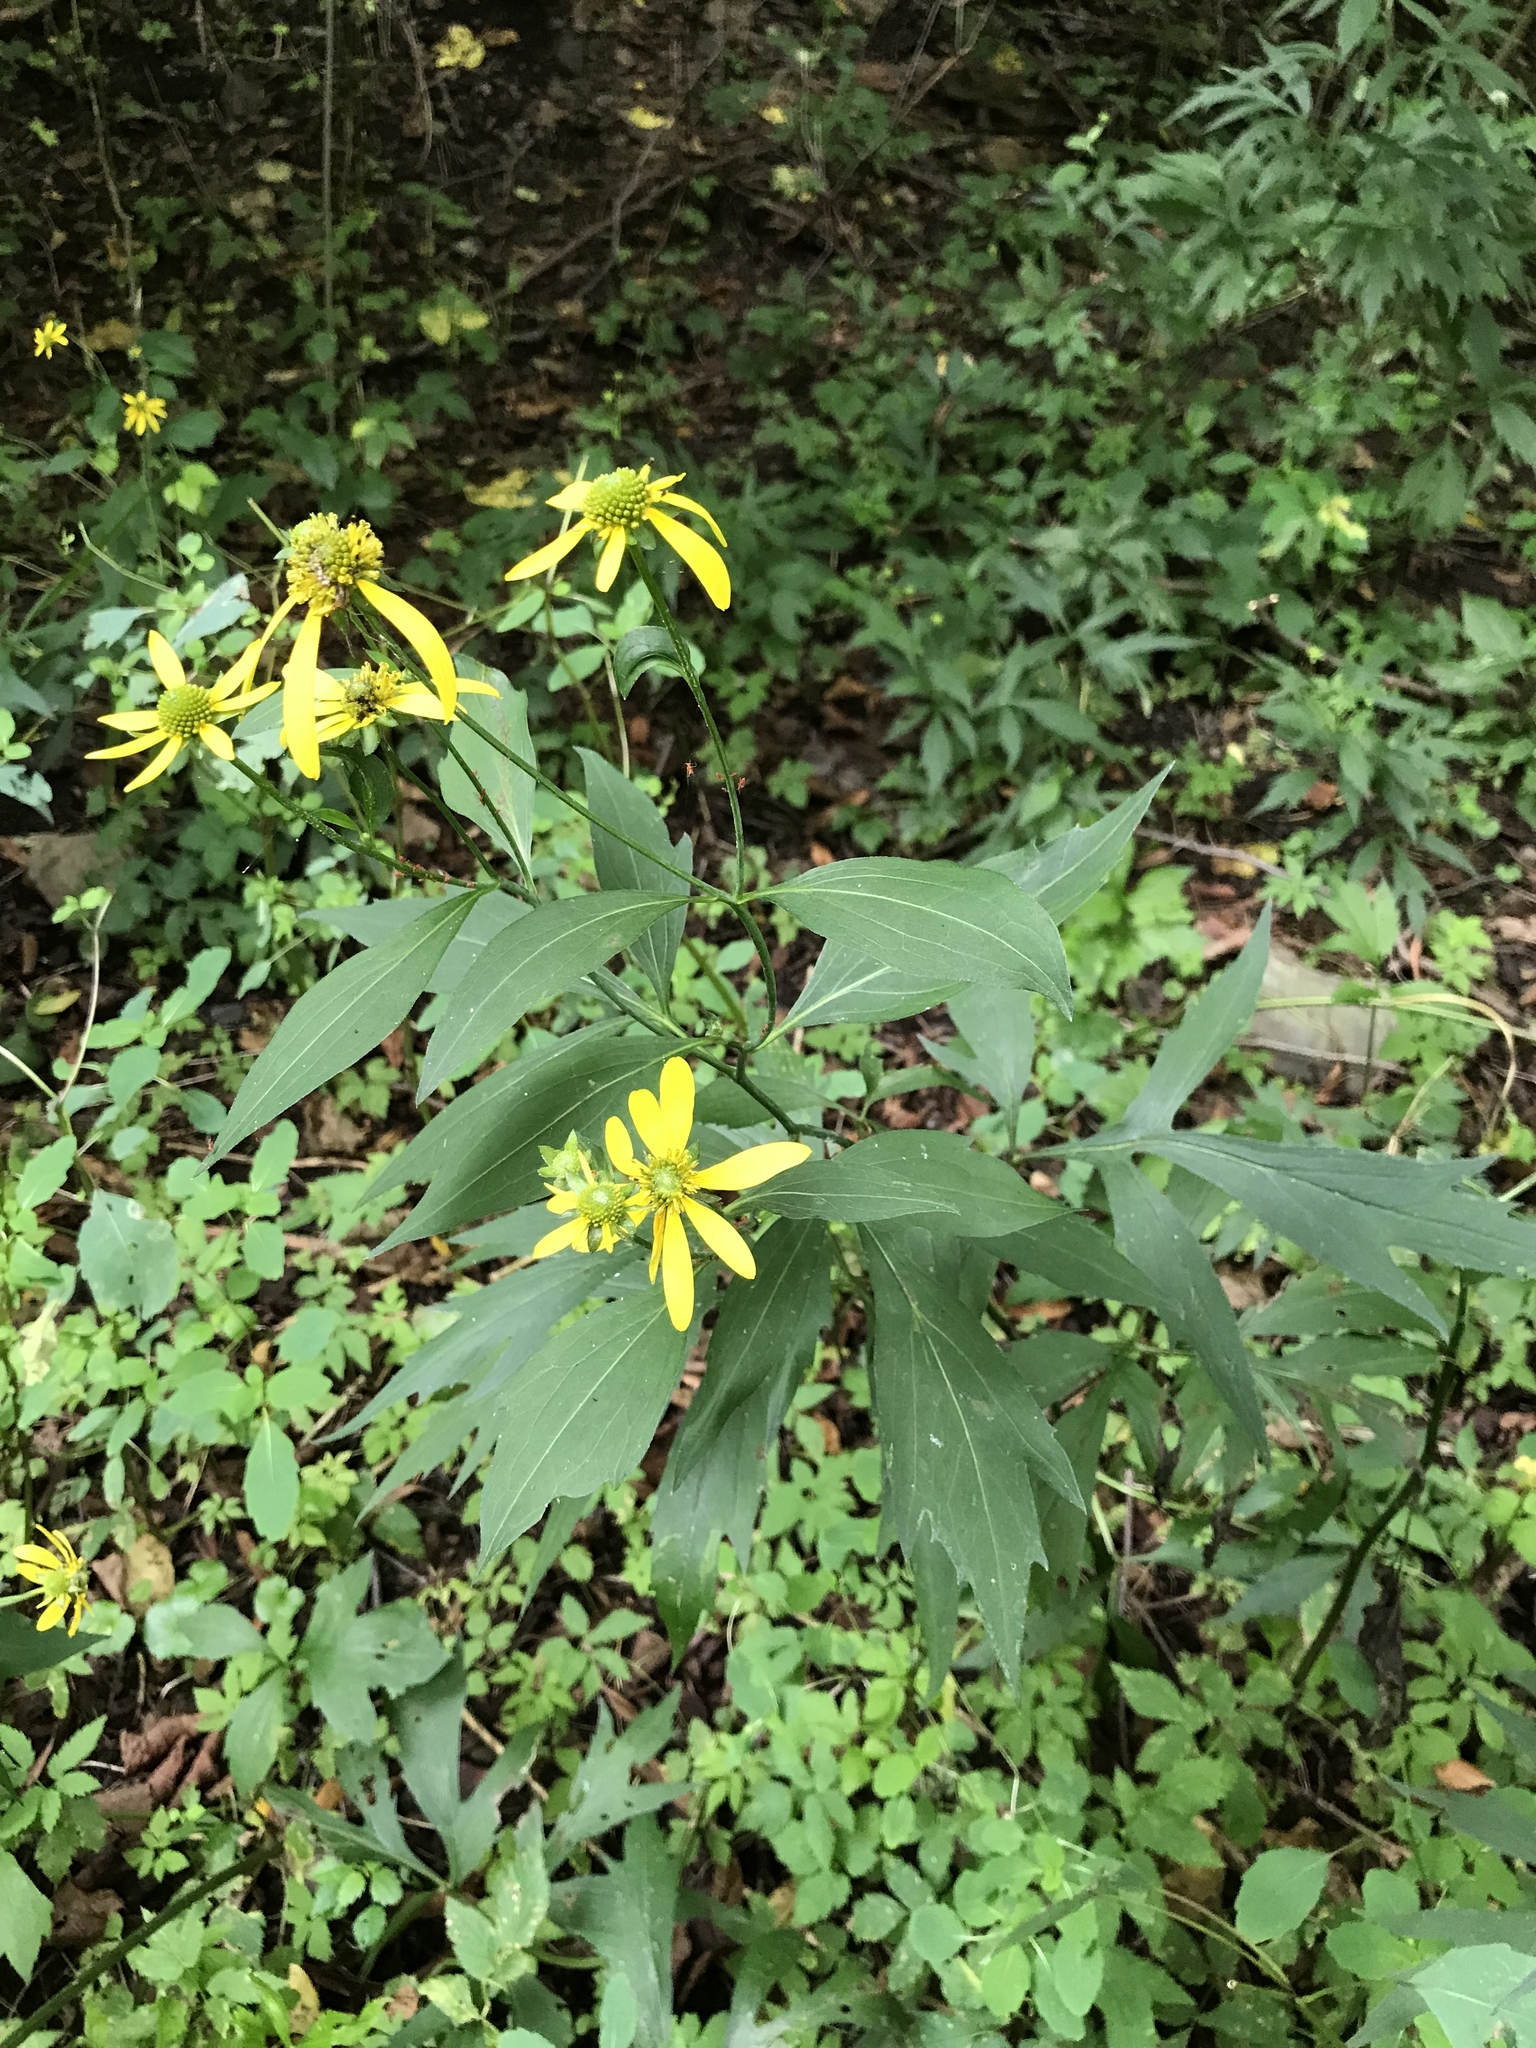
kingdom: Plantae
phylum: Tracheophyta
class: Magnoliopsida
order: Asterales
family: Asteraceae
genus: Rudbeckia
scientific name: Rudbeckia laciniata
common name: Coneflower
